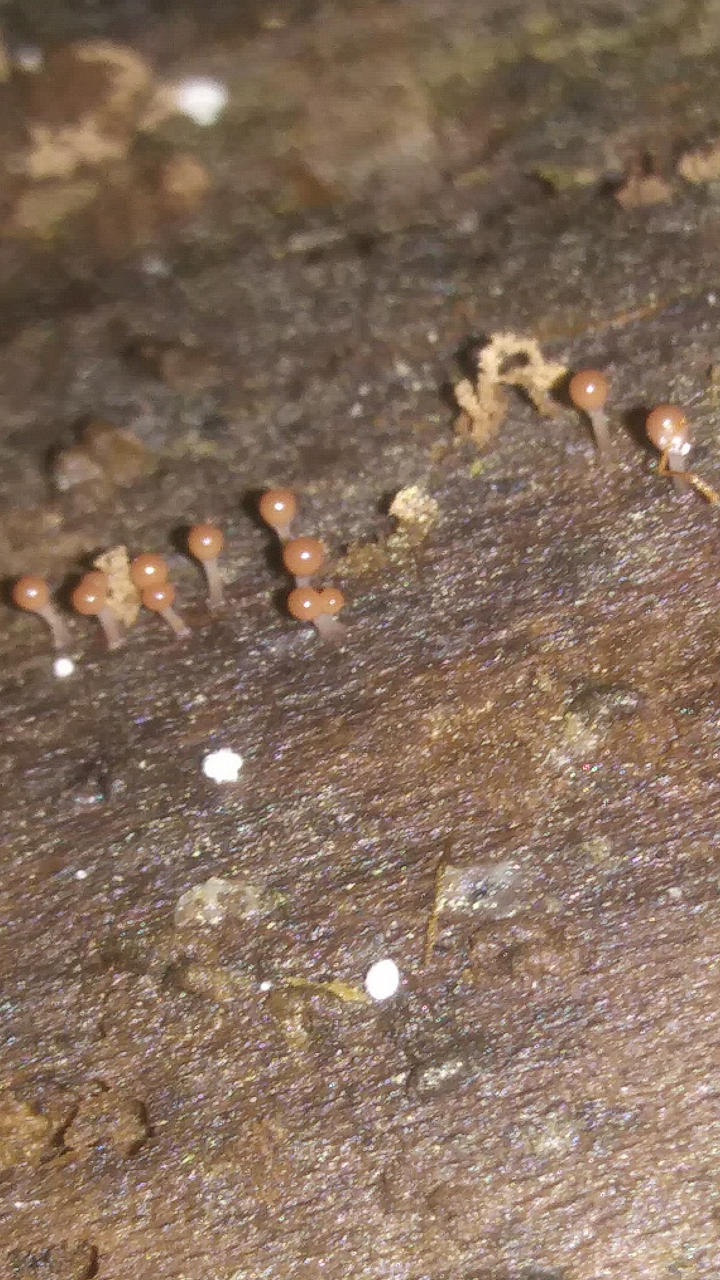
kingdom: Protozoa
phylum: Mycetozoa
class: Myxomycetes
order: Trichiales
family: Arcyriaceae
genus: Hemitrichia
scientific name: Hemitrichia calyculata
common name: Push pin slime mold
